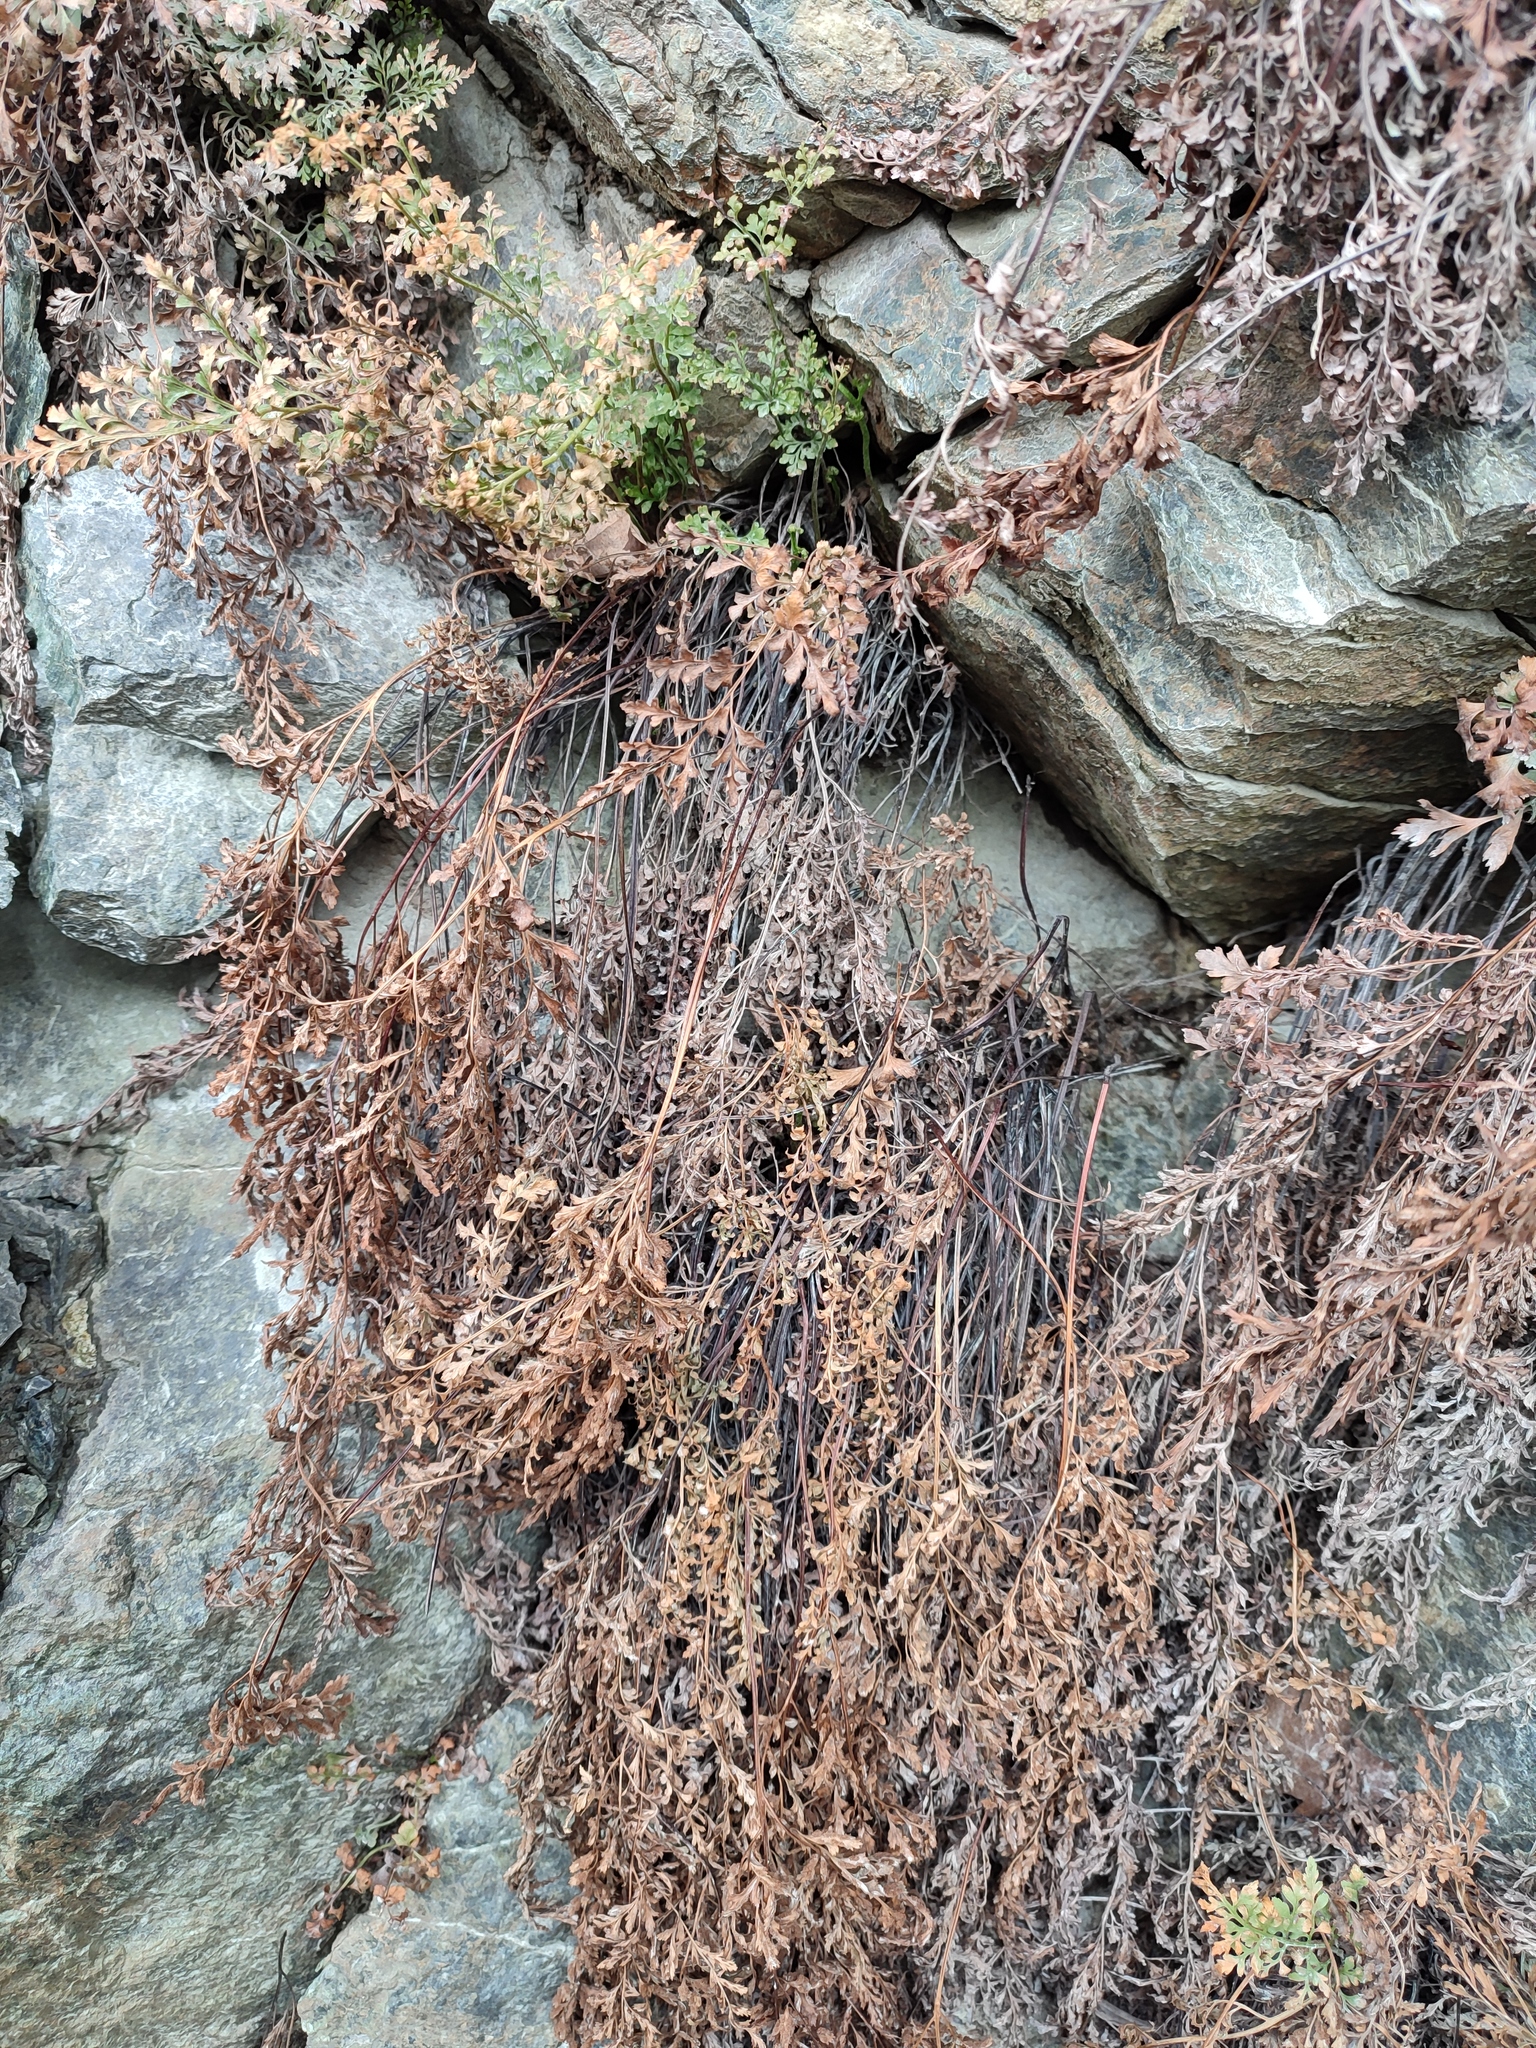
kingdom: Plantae
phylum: Tracheophyta
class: Polypodiopsida
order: Polypodiales
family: Aspleniaceae
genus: Asplenium
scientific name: Asplenium cuneifolium
